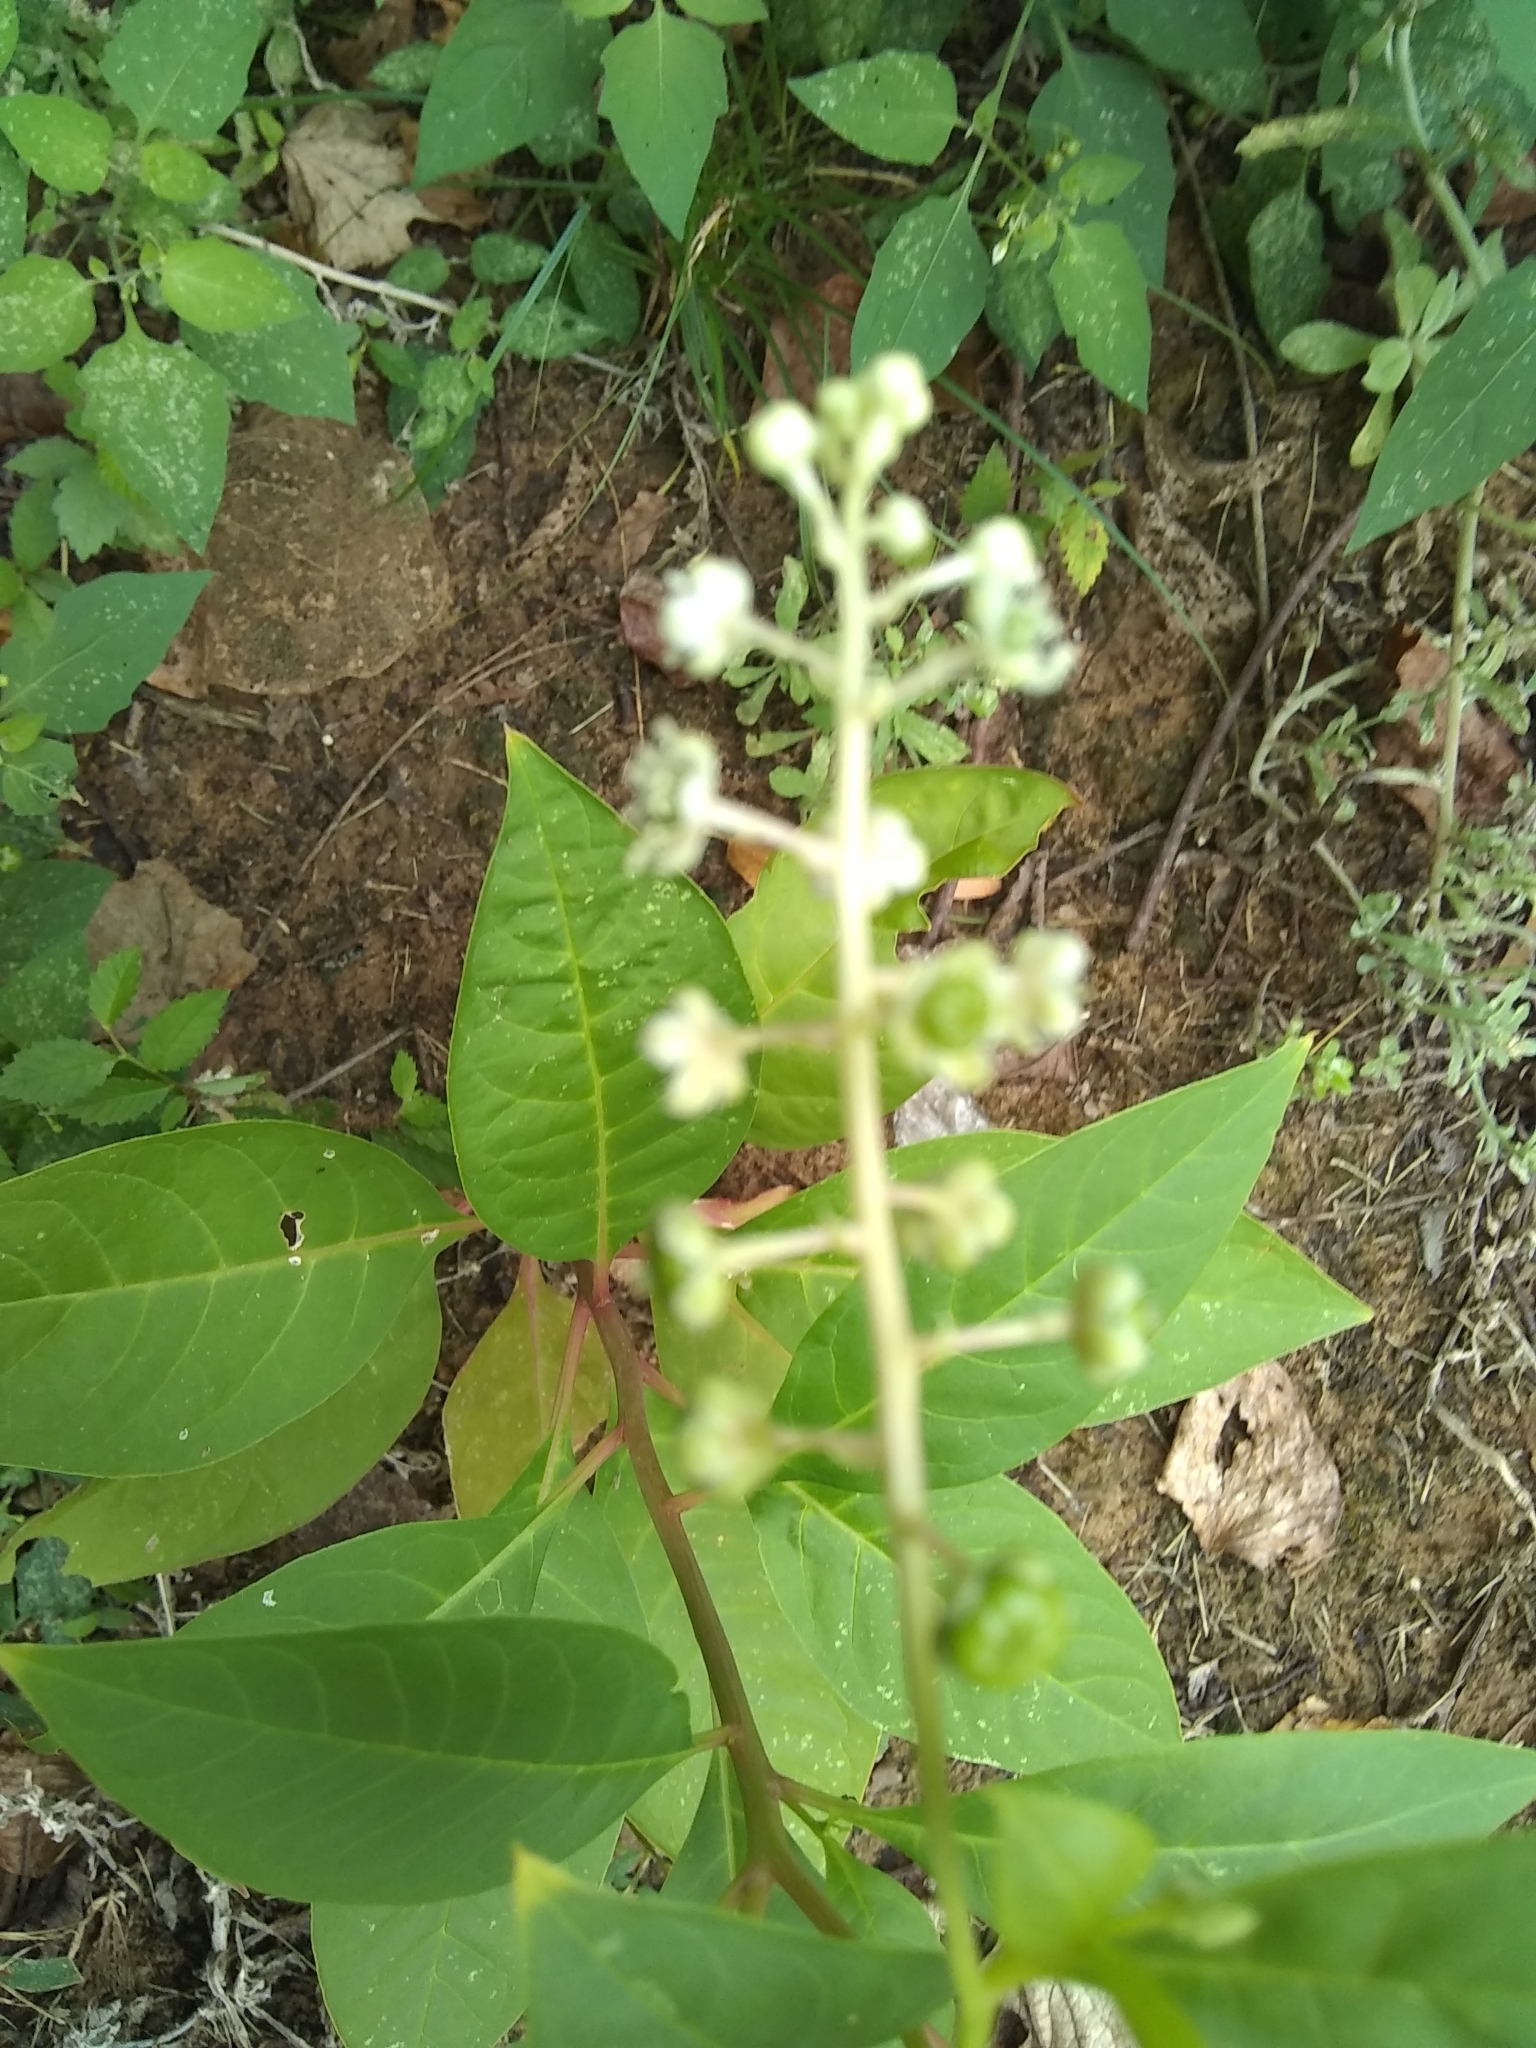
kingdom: Plantae
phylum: Tracheophyta
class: Magnoliopsida
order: Caryophyllales
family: Phytolaccaceae
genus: Phytolacca
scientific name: Phytolacca americana
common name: American pokeweed
